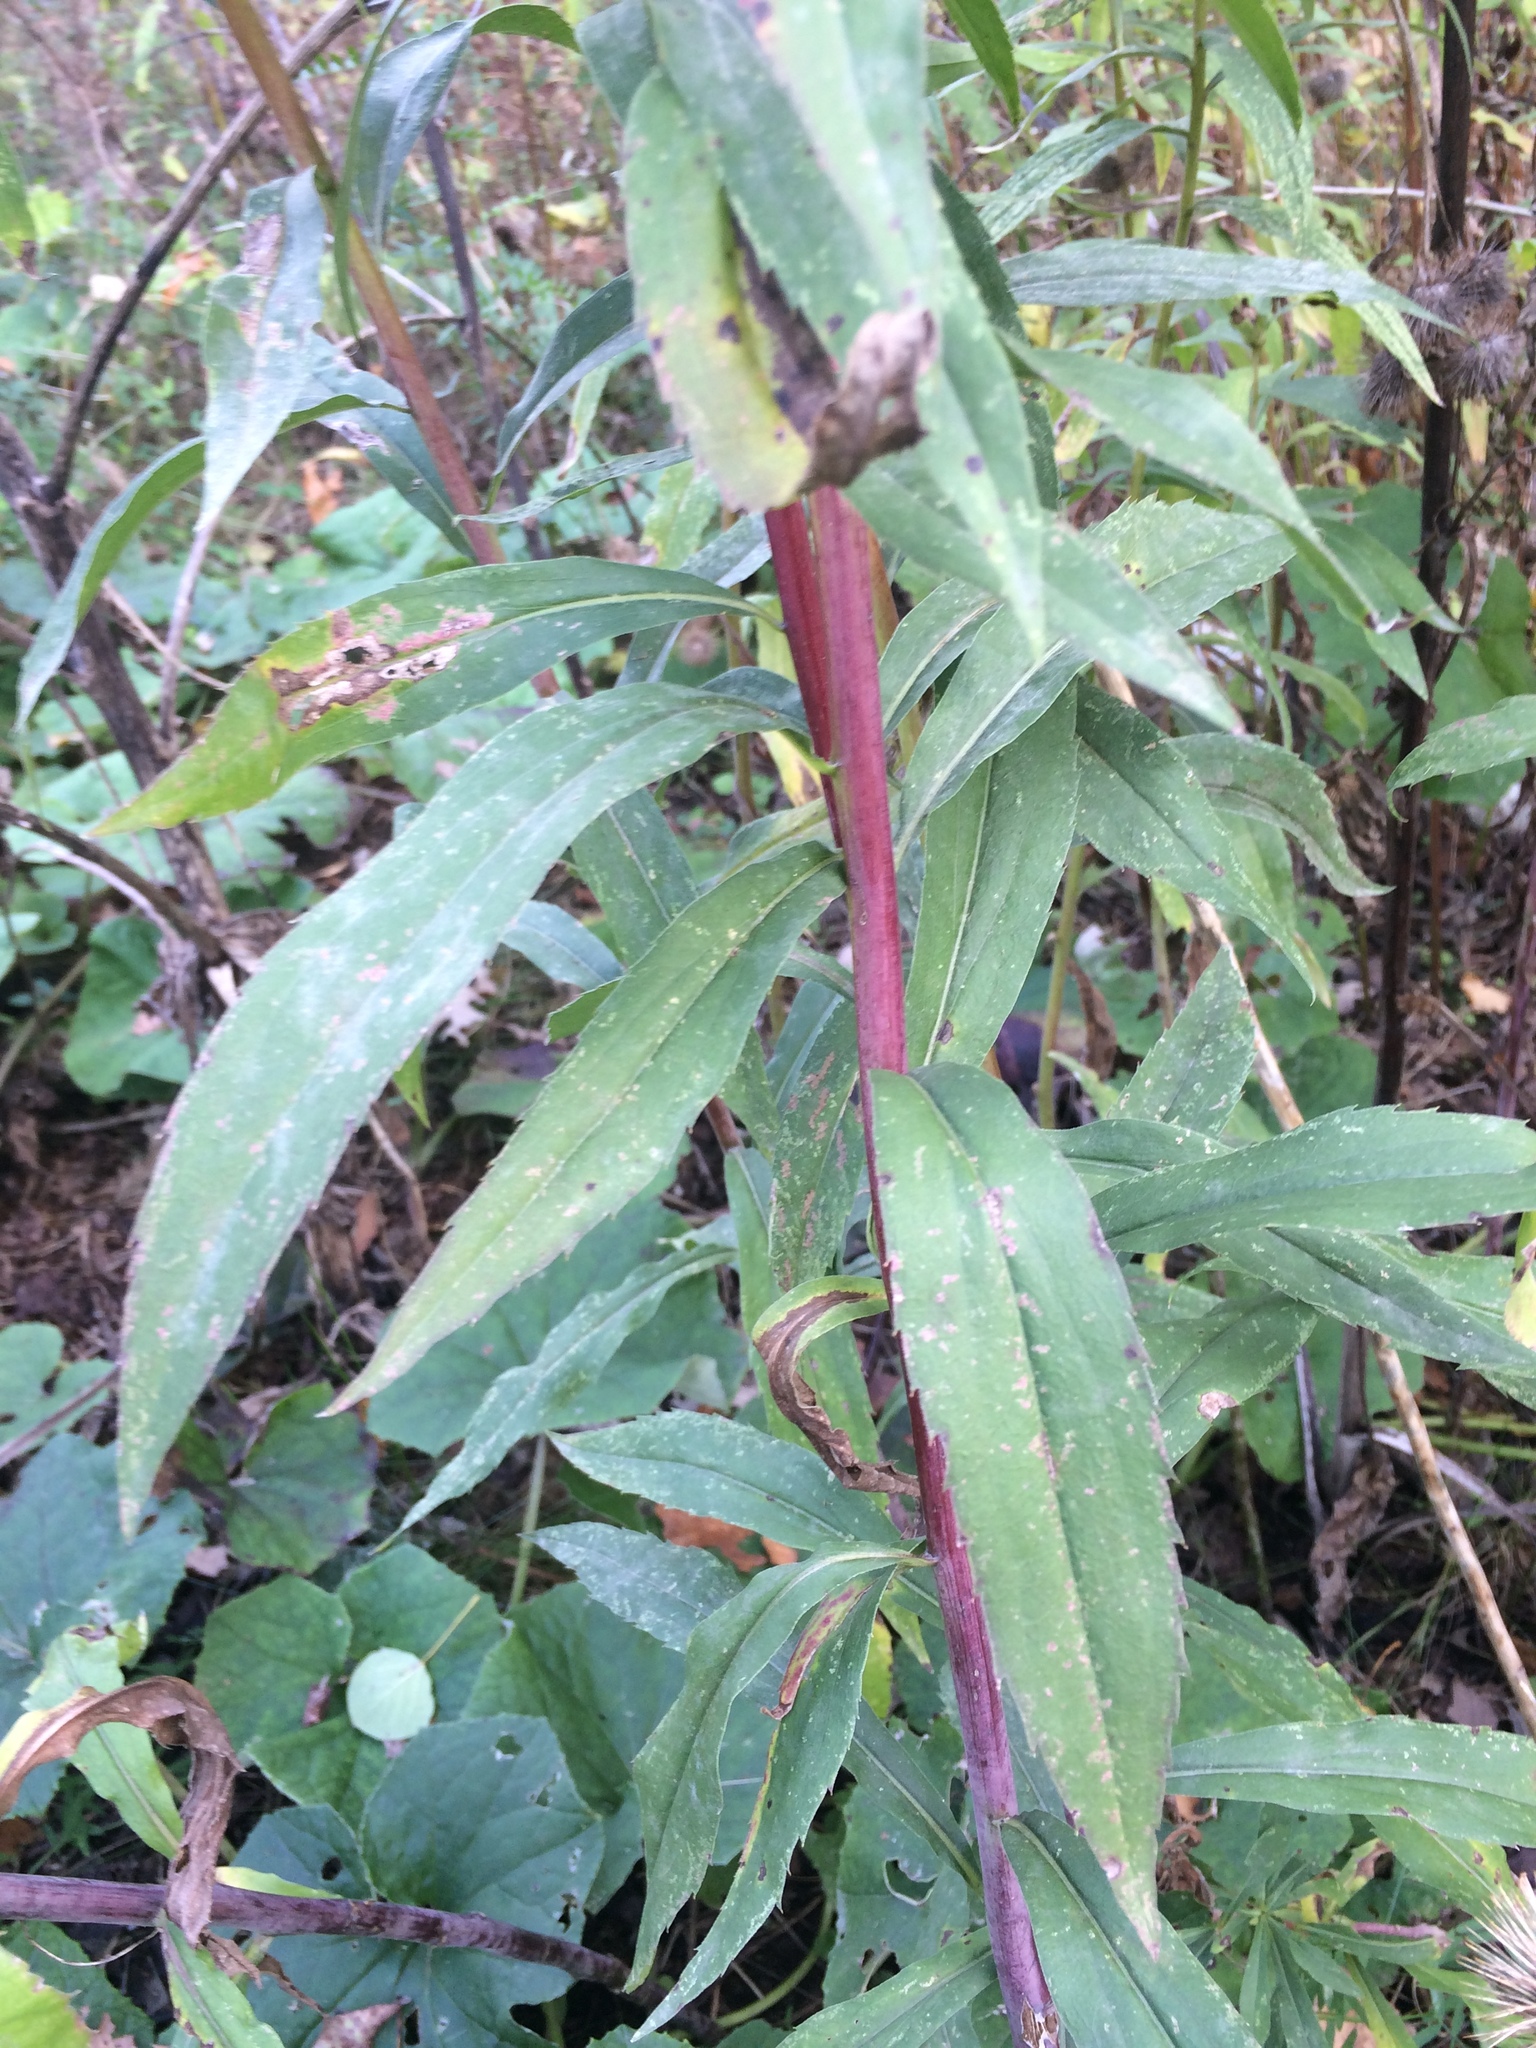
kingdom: Plantae
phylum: Tracheophyta
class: Magnoliopsida
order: Asterales
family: Asteraceae
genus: Solidago
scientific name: Solidago gigantea
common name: Giant goldenrod
